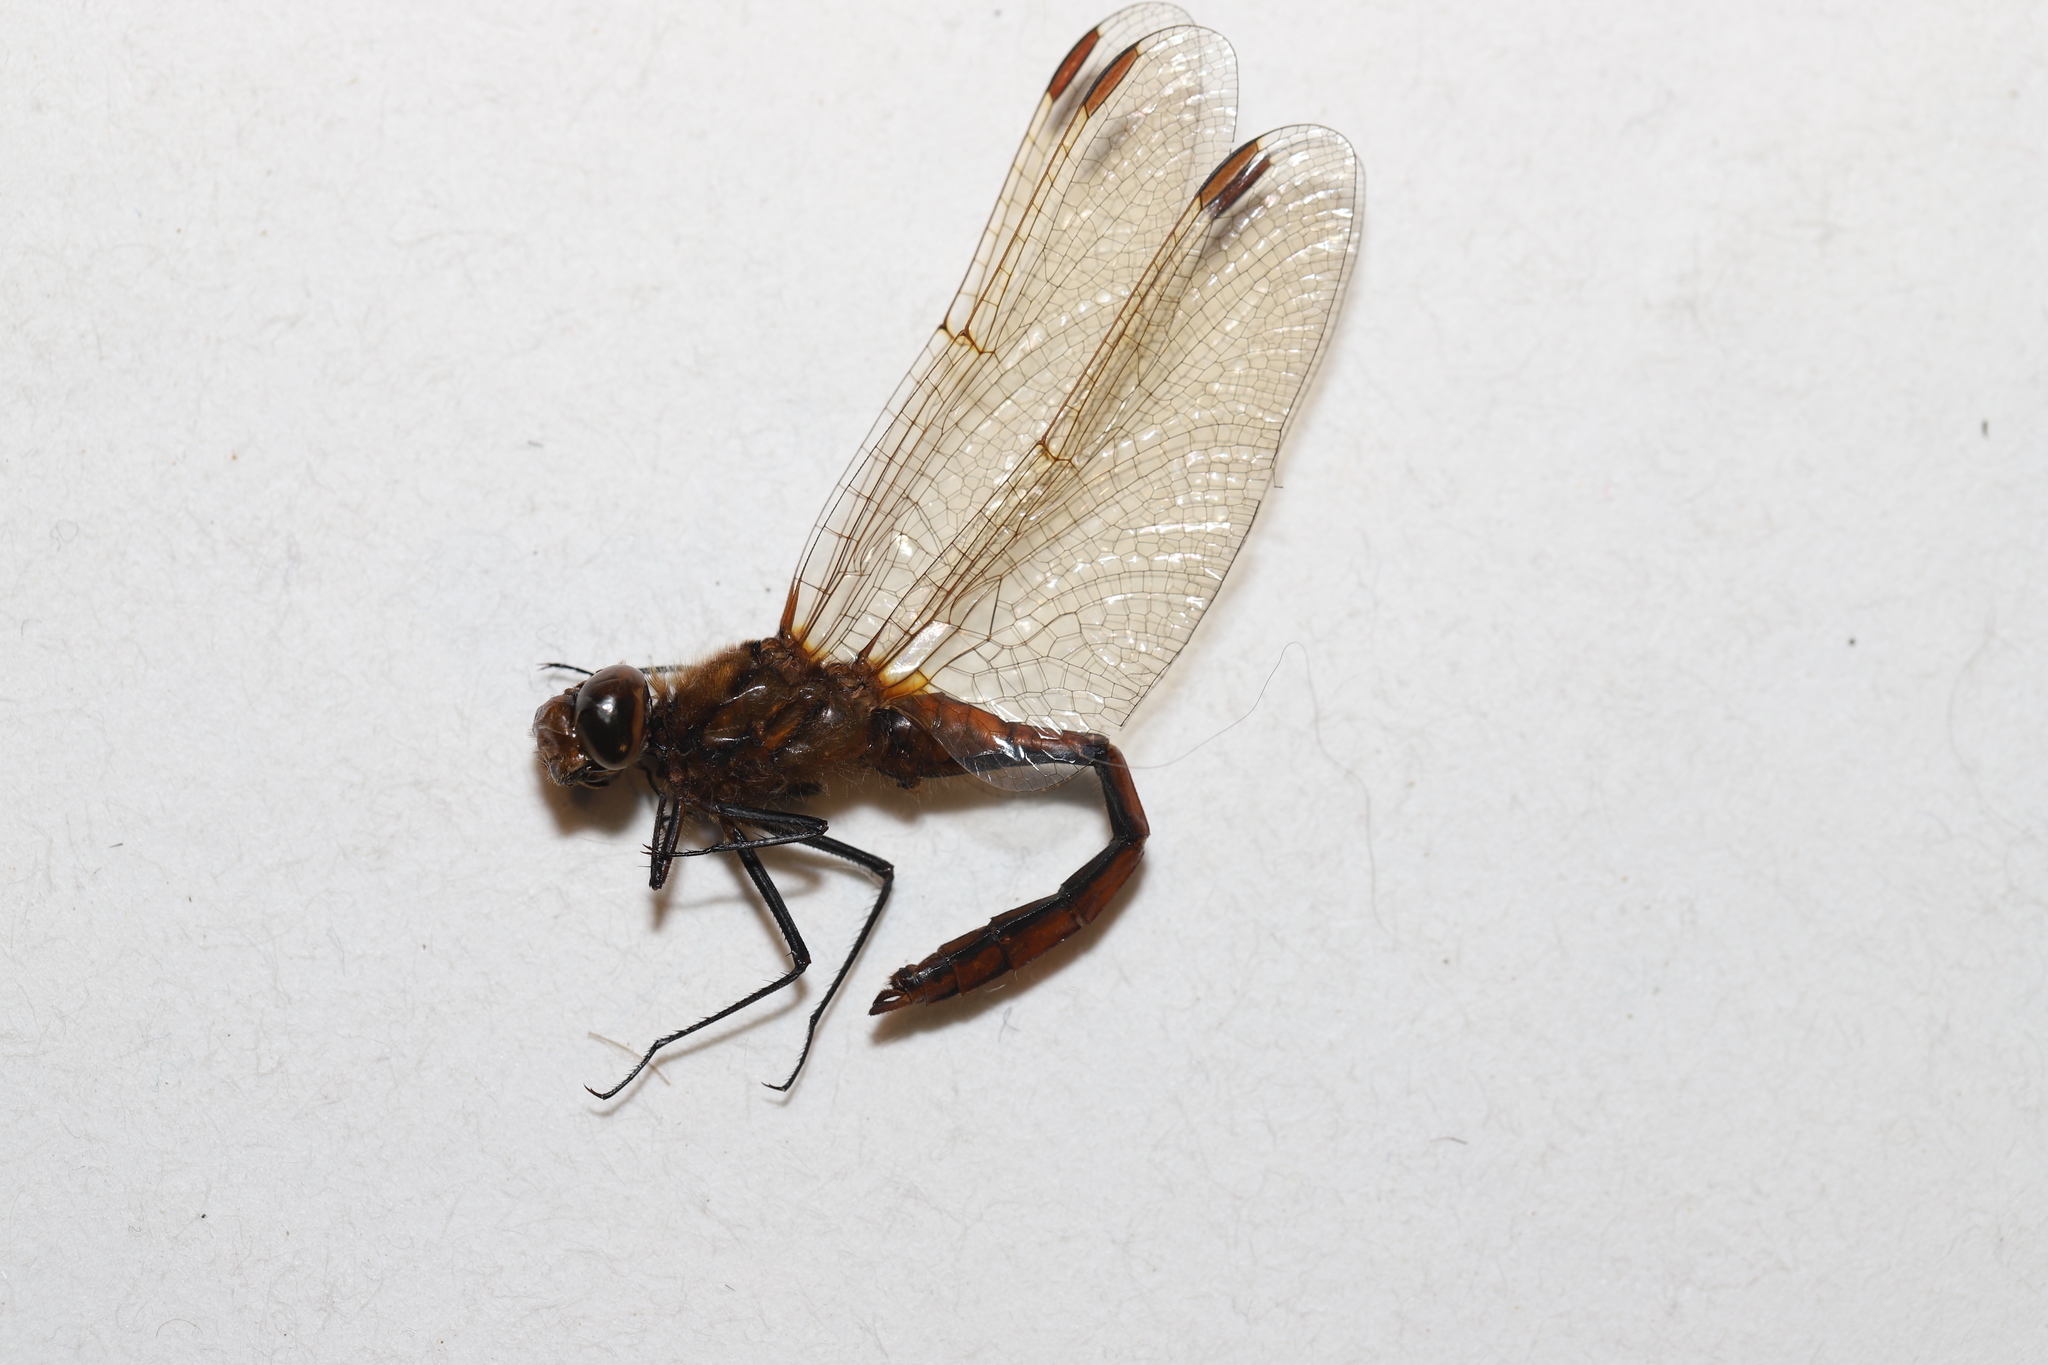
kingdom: Animalia
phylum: Arthropoda
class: Insecta
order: Odonata
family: Libellulidae
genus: Sympetrum
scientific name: Sympetrum costiferum
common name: Saffron-winged meadowhawk
